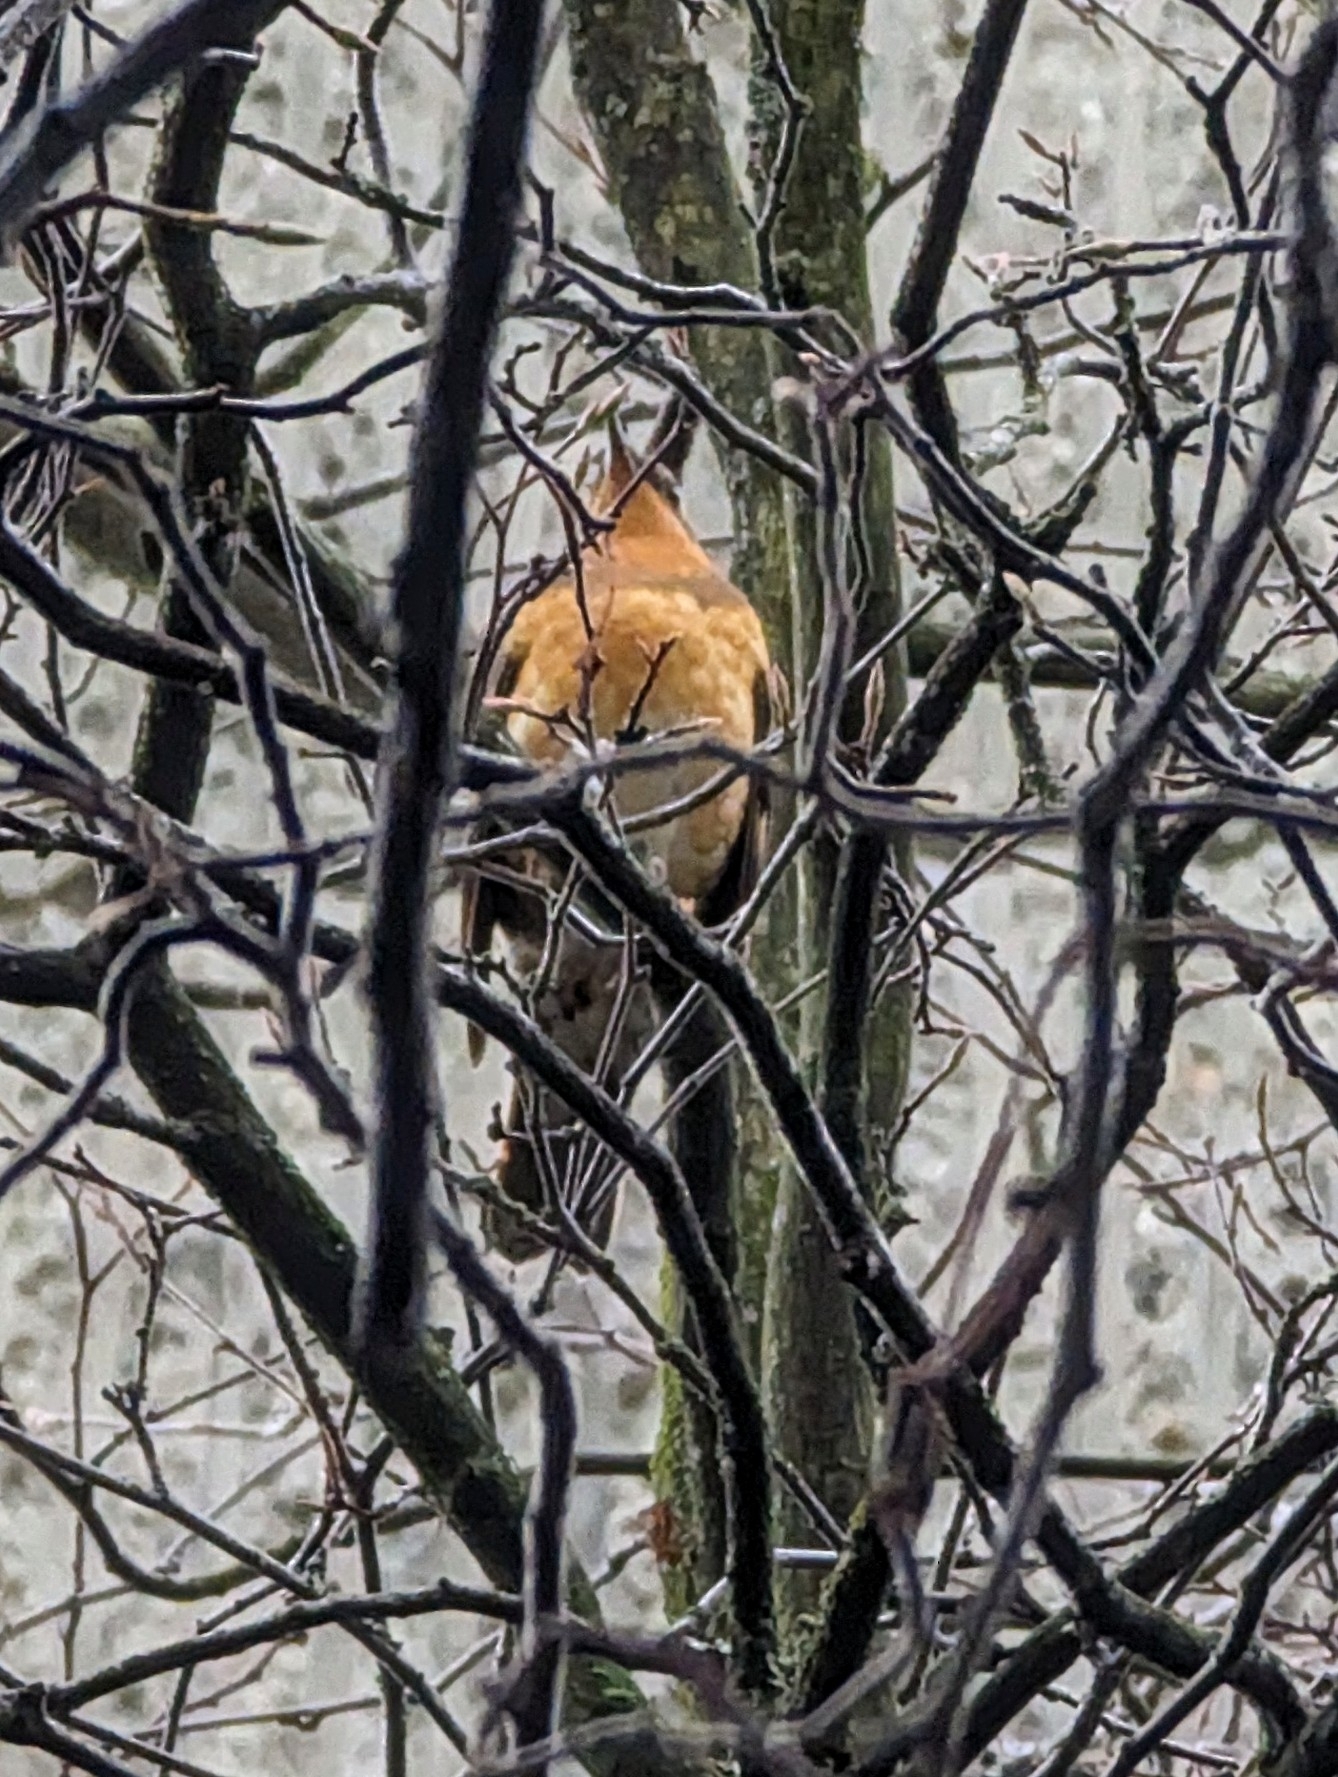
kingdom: Animalia
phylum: Chordata
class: Aves
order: Passeriformes
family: Turdidae
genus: Ixoreus
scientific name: Ixoreus naevius
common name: Varied thrush
